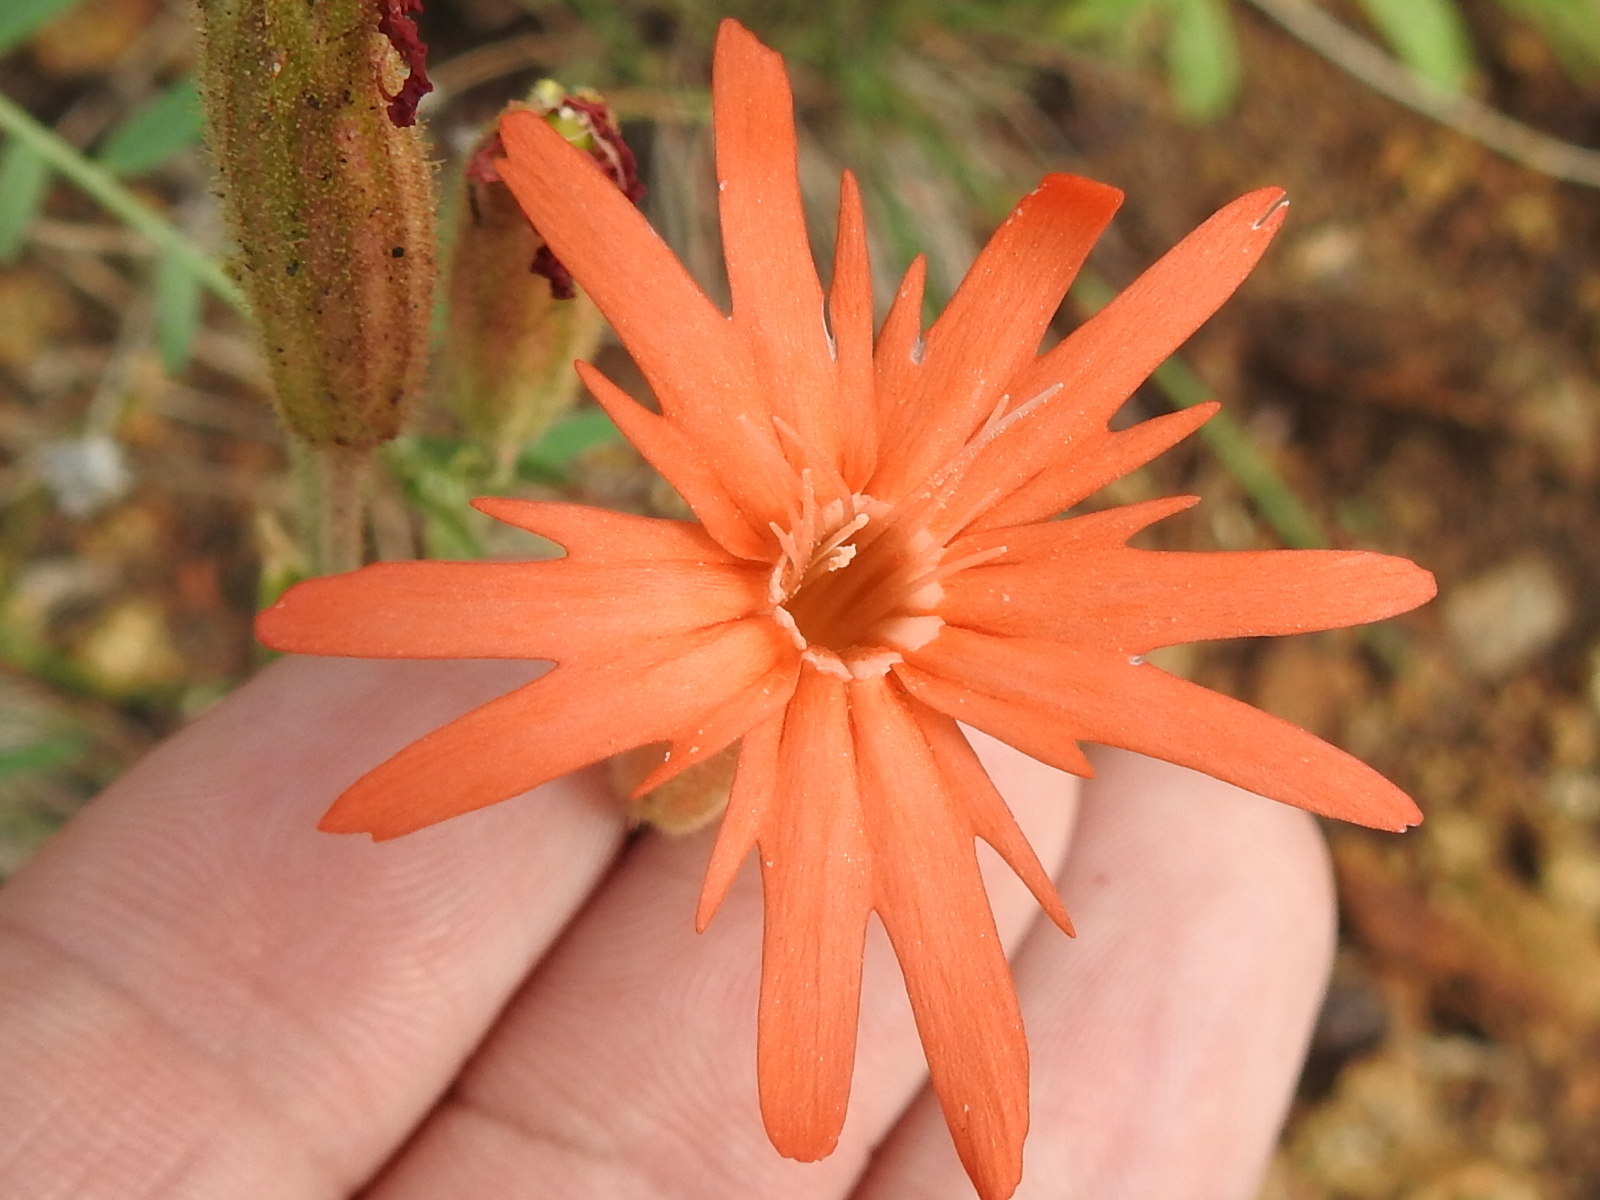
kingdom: Plantae
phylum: Tracheophyta
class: Magnoliopsida
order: Caryophyllales
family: Caryophyllaceae
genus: Silene
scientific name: Silene laciniata
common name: Indian-pink
